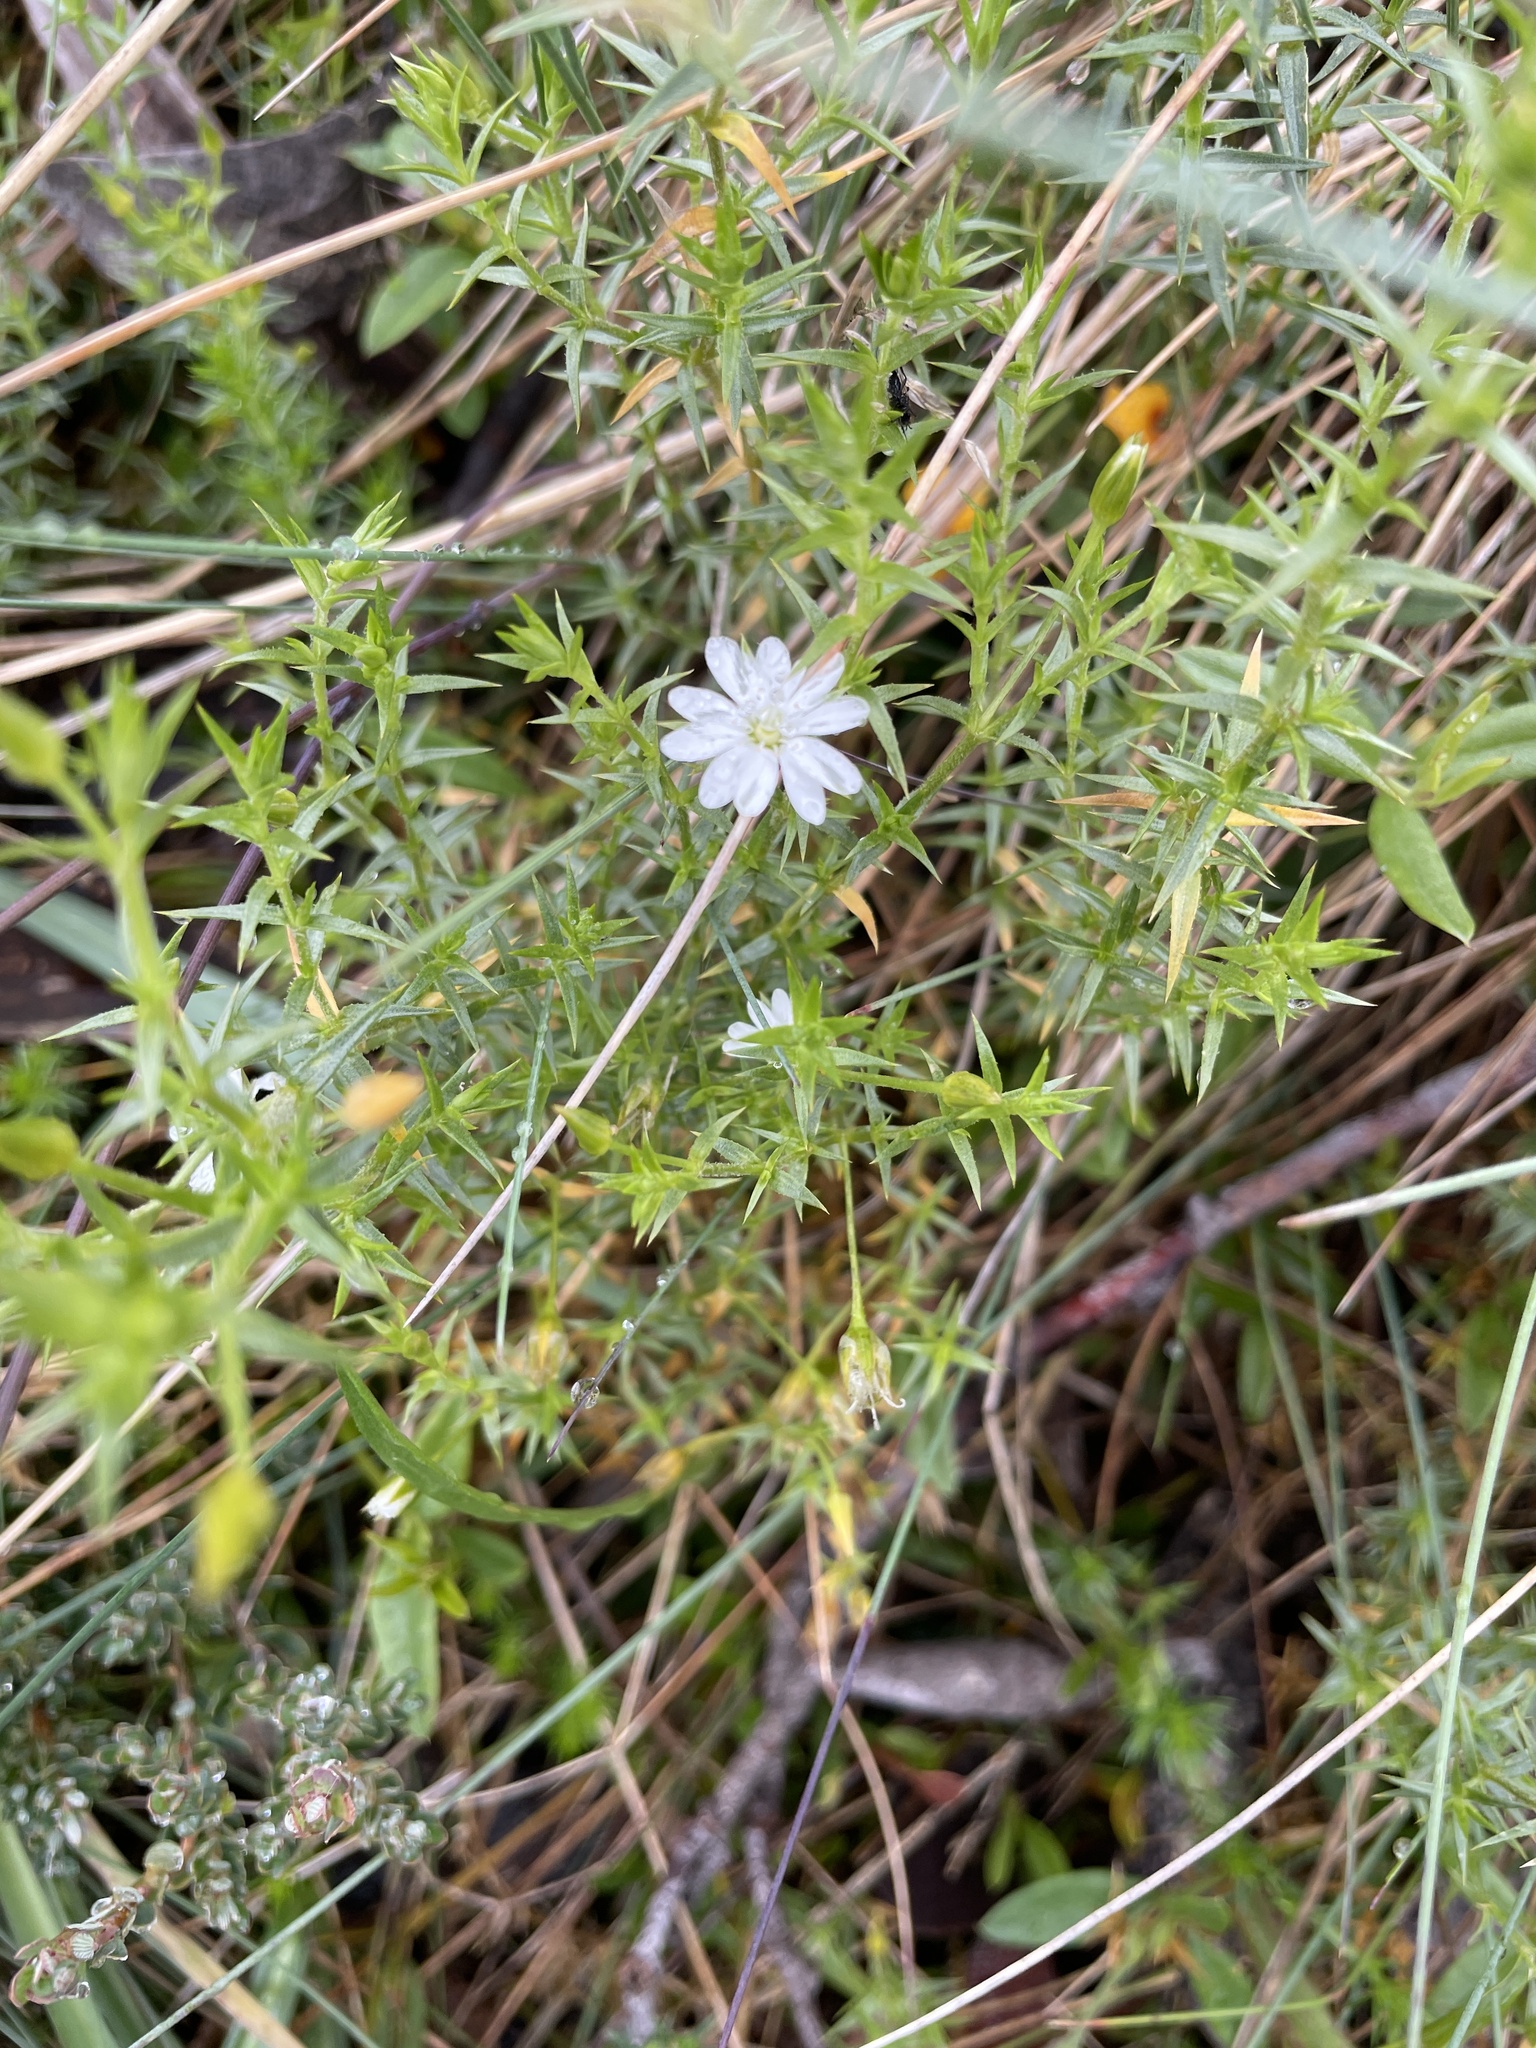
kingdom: Plantae
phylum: Tracheophyta
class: Magnoliopsida
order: Caryophyllales
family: Caryophyllaceae
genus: Stellaria
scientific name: Stellaria pungens
